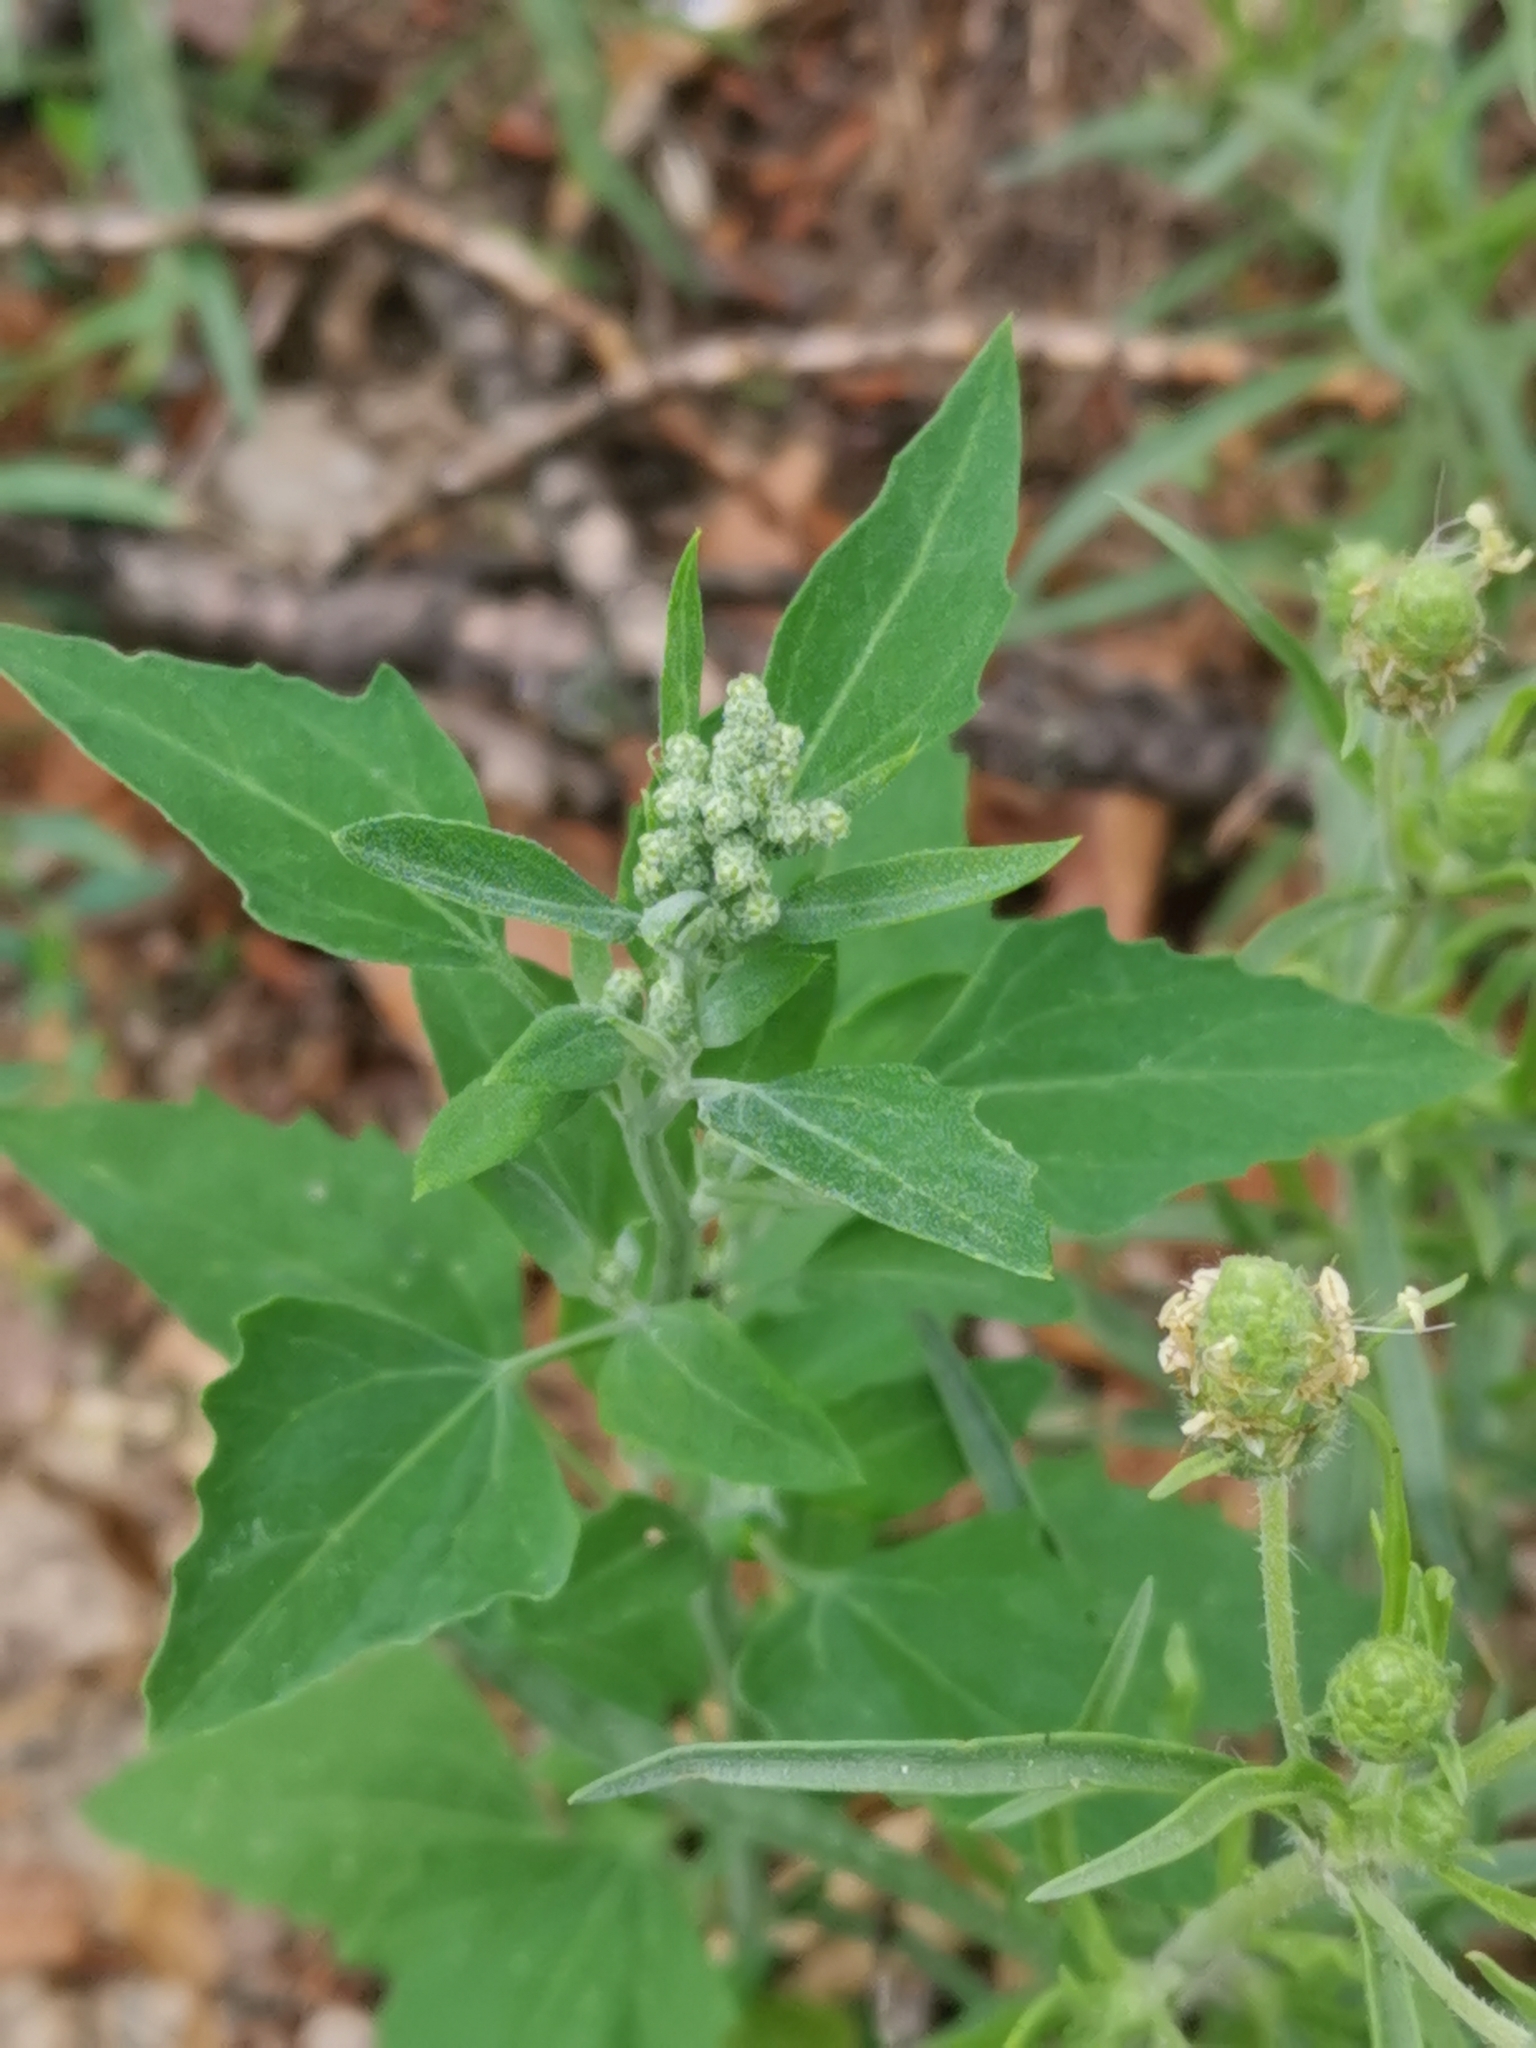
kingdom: Plantae
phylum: Tracheophyta
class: Magnoliopsida
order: Caryophyllales
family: Amaranthaceae
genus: Chenopodium
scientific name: Chenopodium album
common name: Fat-hen
